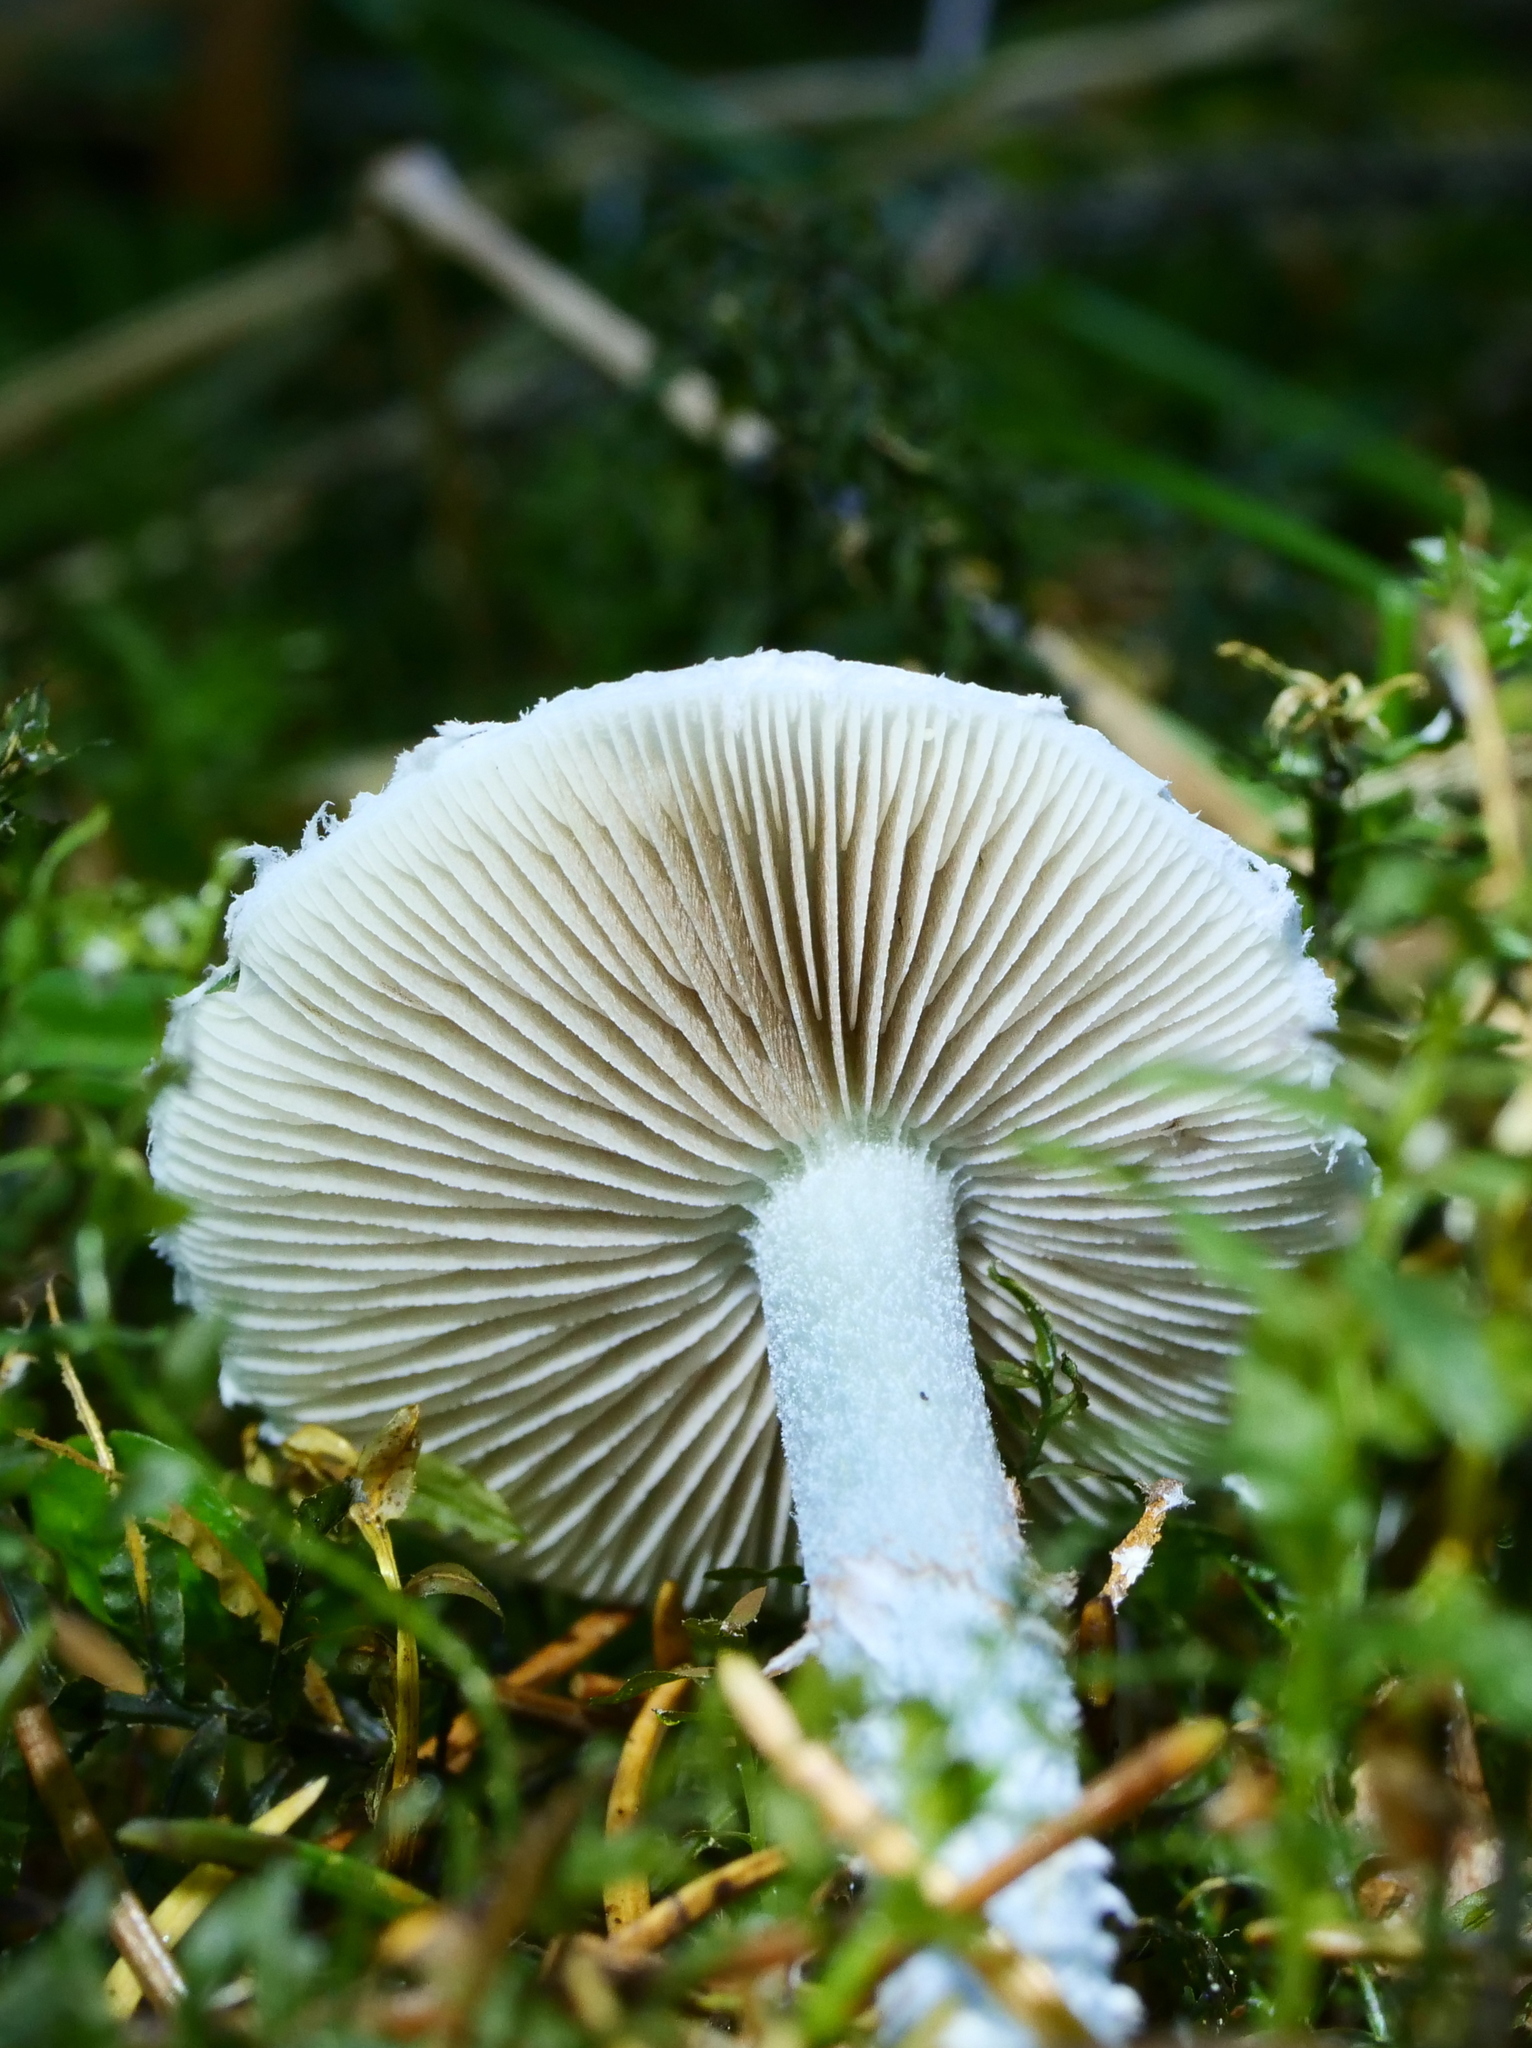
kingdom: Fungi
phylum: Basidiomycota
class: Agaricomycetes
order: Agaricales
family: Strophariaceae
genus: Stropharia
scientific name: Stropharia caerulea
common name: Blue roundhead
